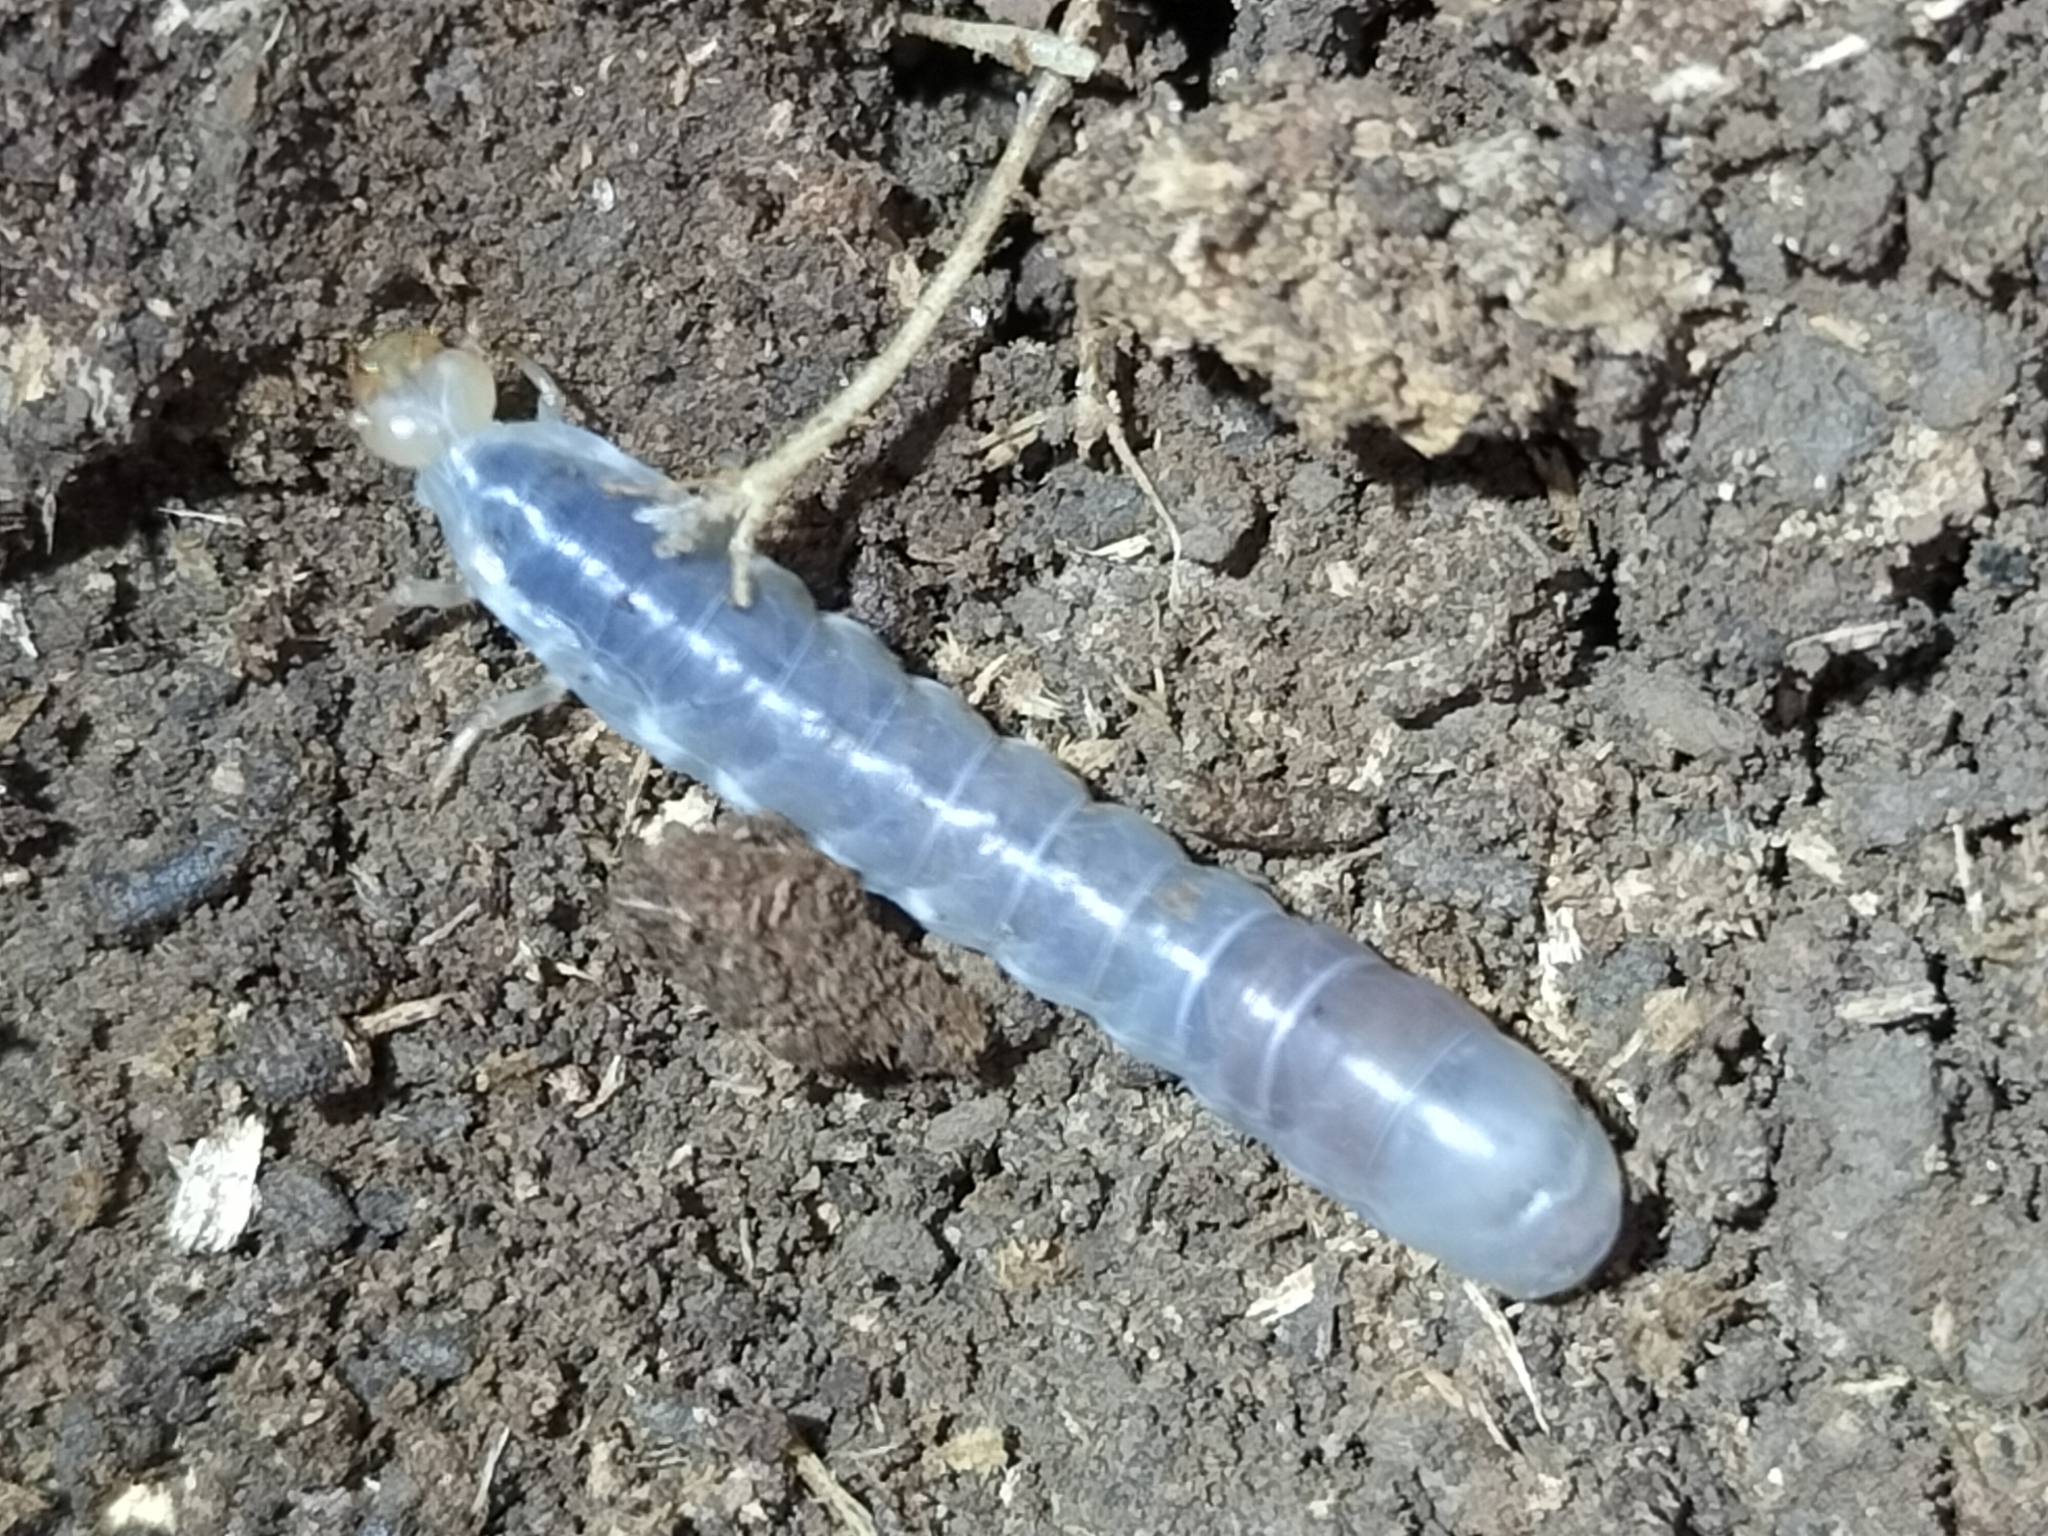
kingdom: Animalia
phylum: Arthropoda
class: Insecta
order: Coleoptera
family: Passalidae
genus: Mastachilus
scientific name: Mastachilus australasicus
